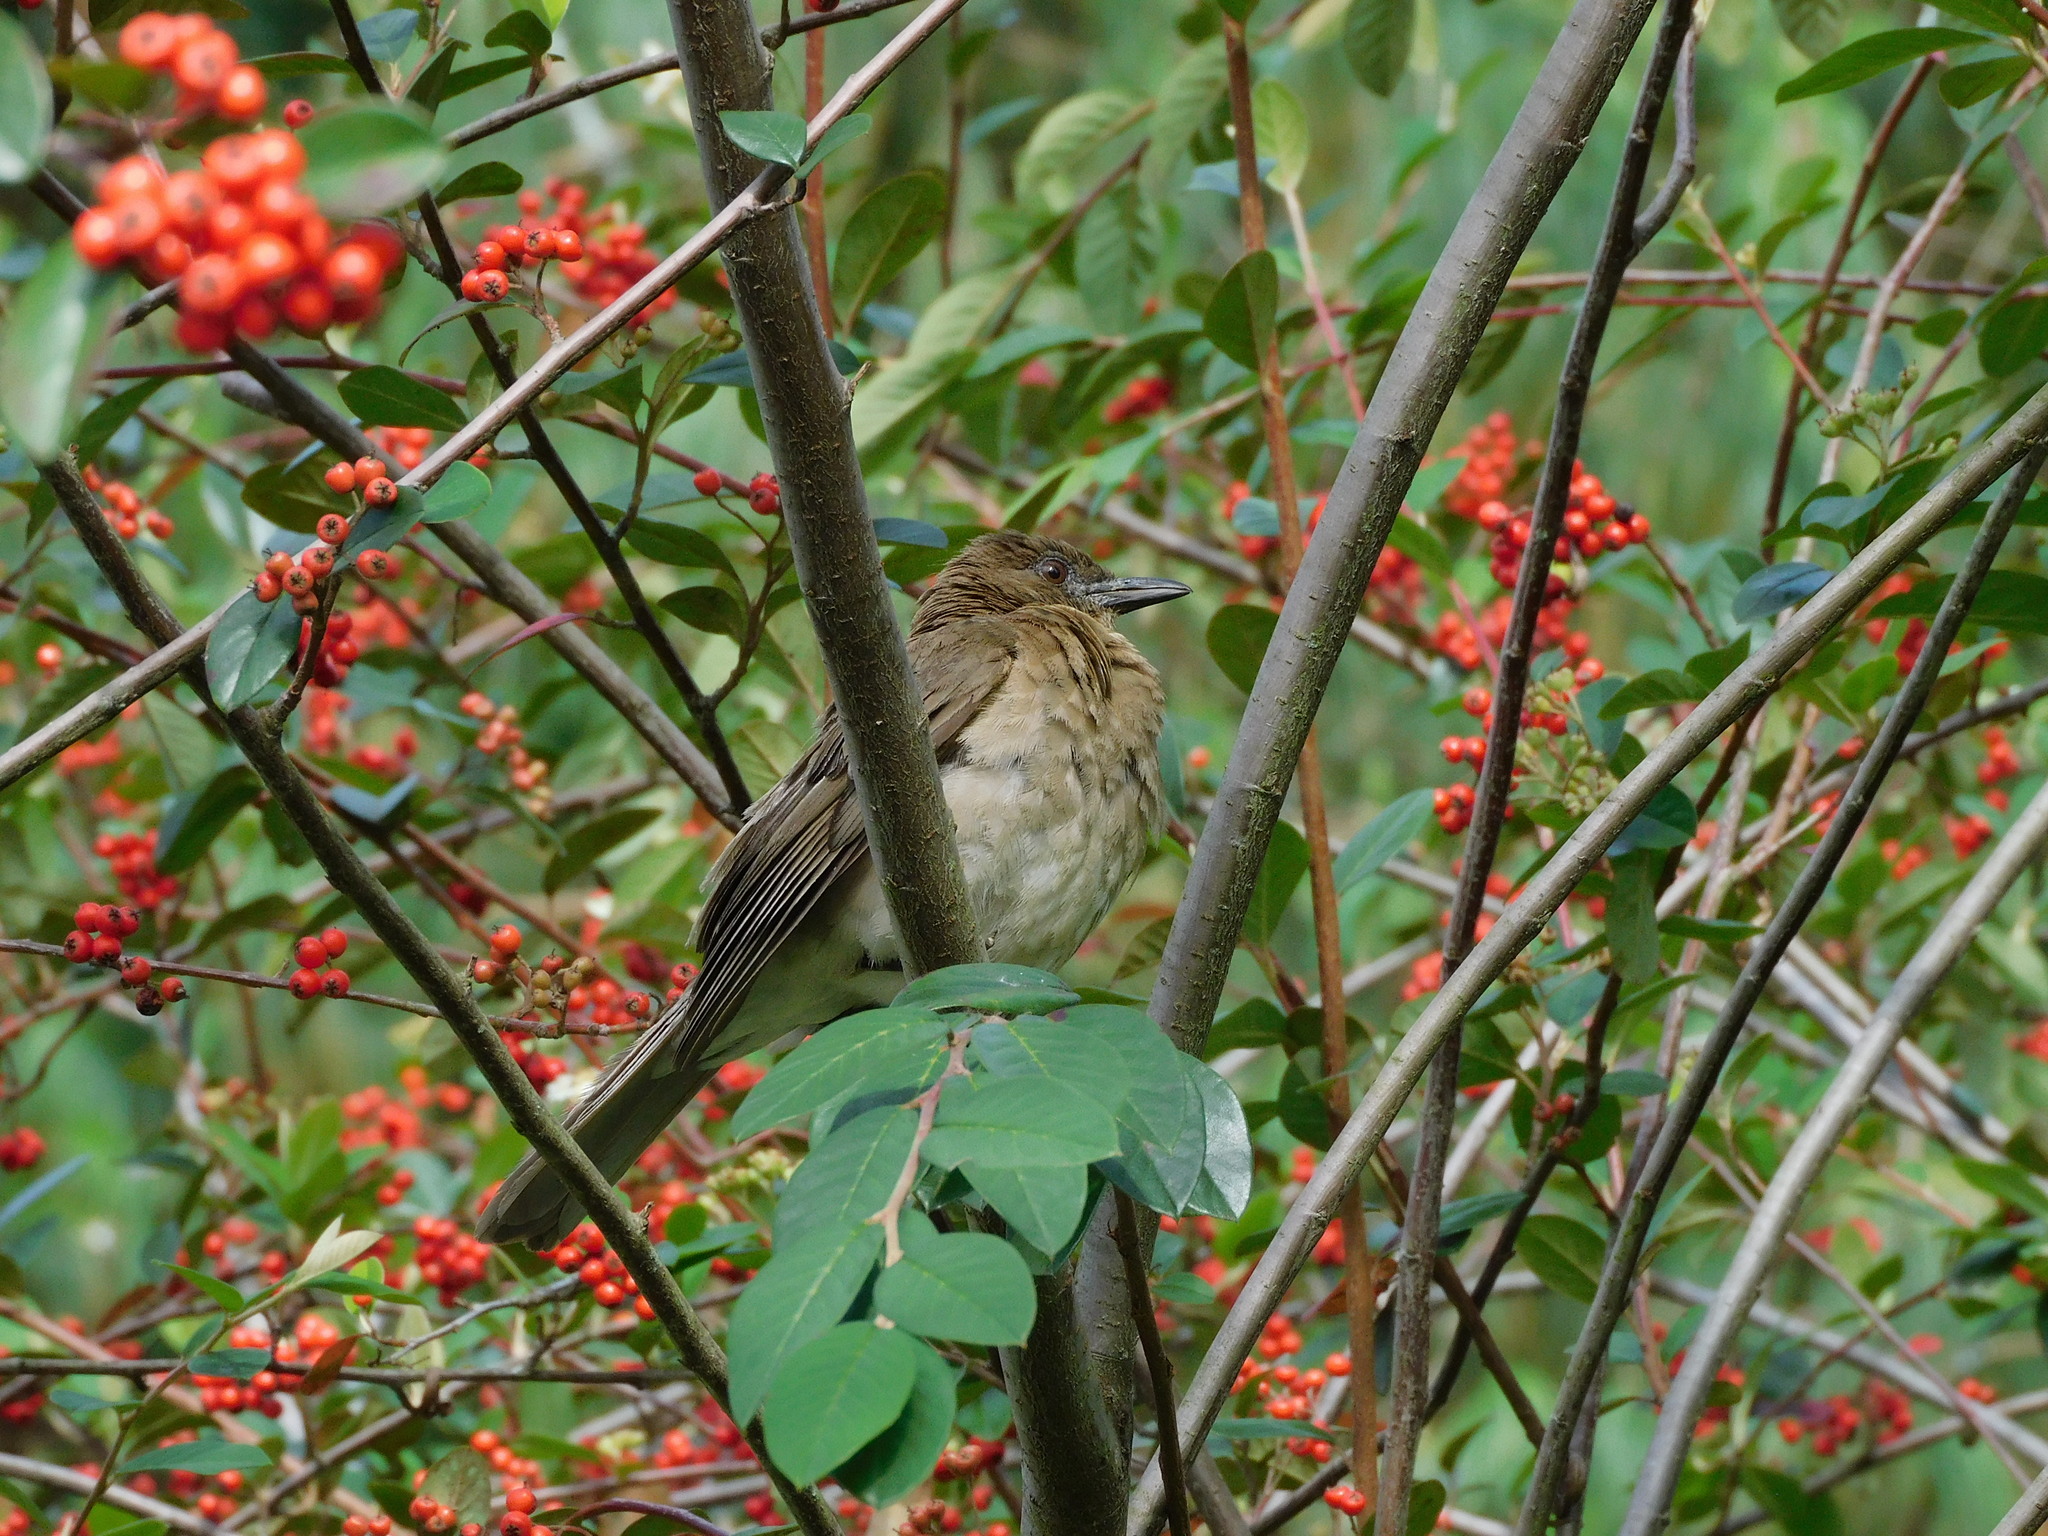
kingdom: Animalia
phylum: Chordata
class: Aves
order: Passeriformes
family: Turdidae
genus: Turdus
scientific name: Turdus ignobilis
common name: Black-billed thrush
